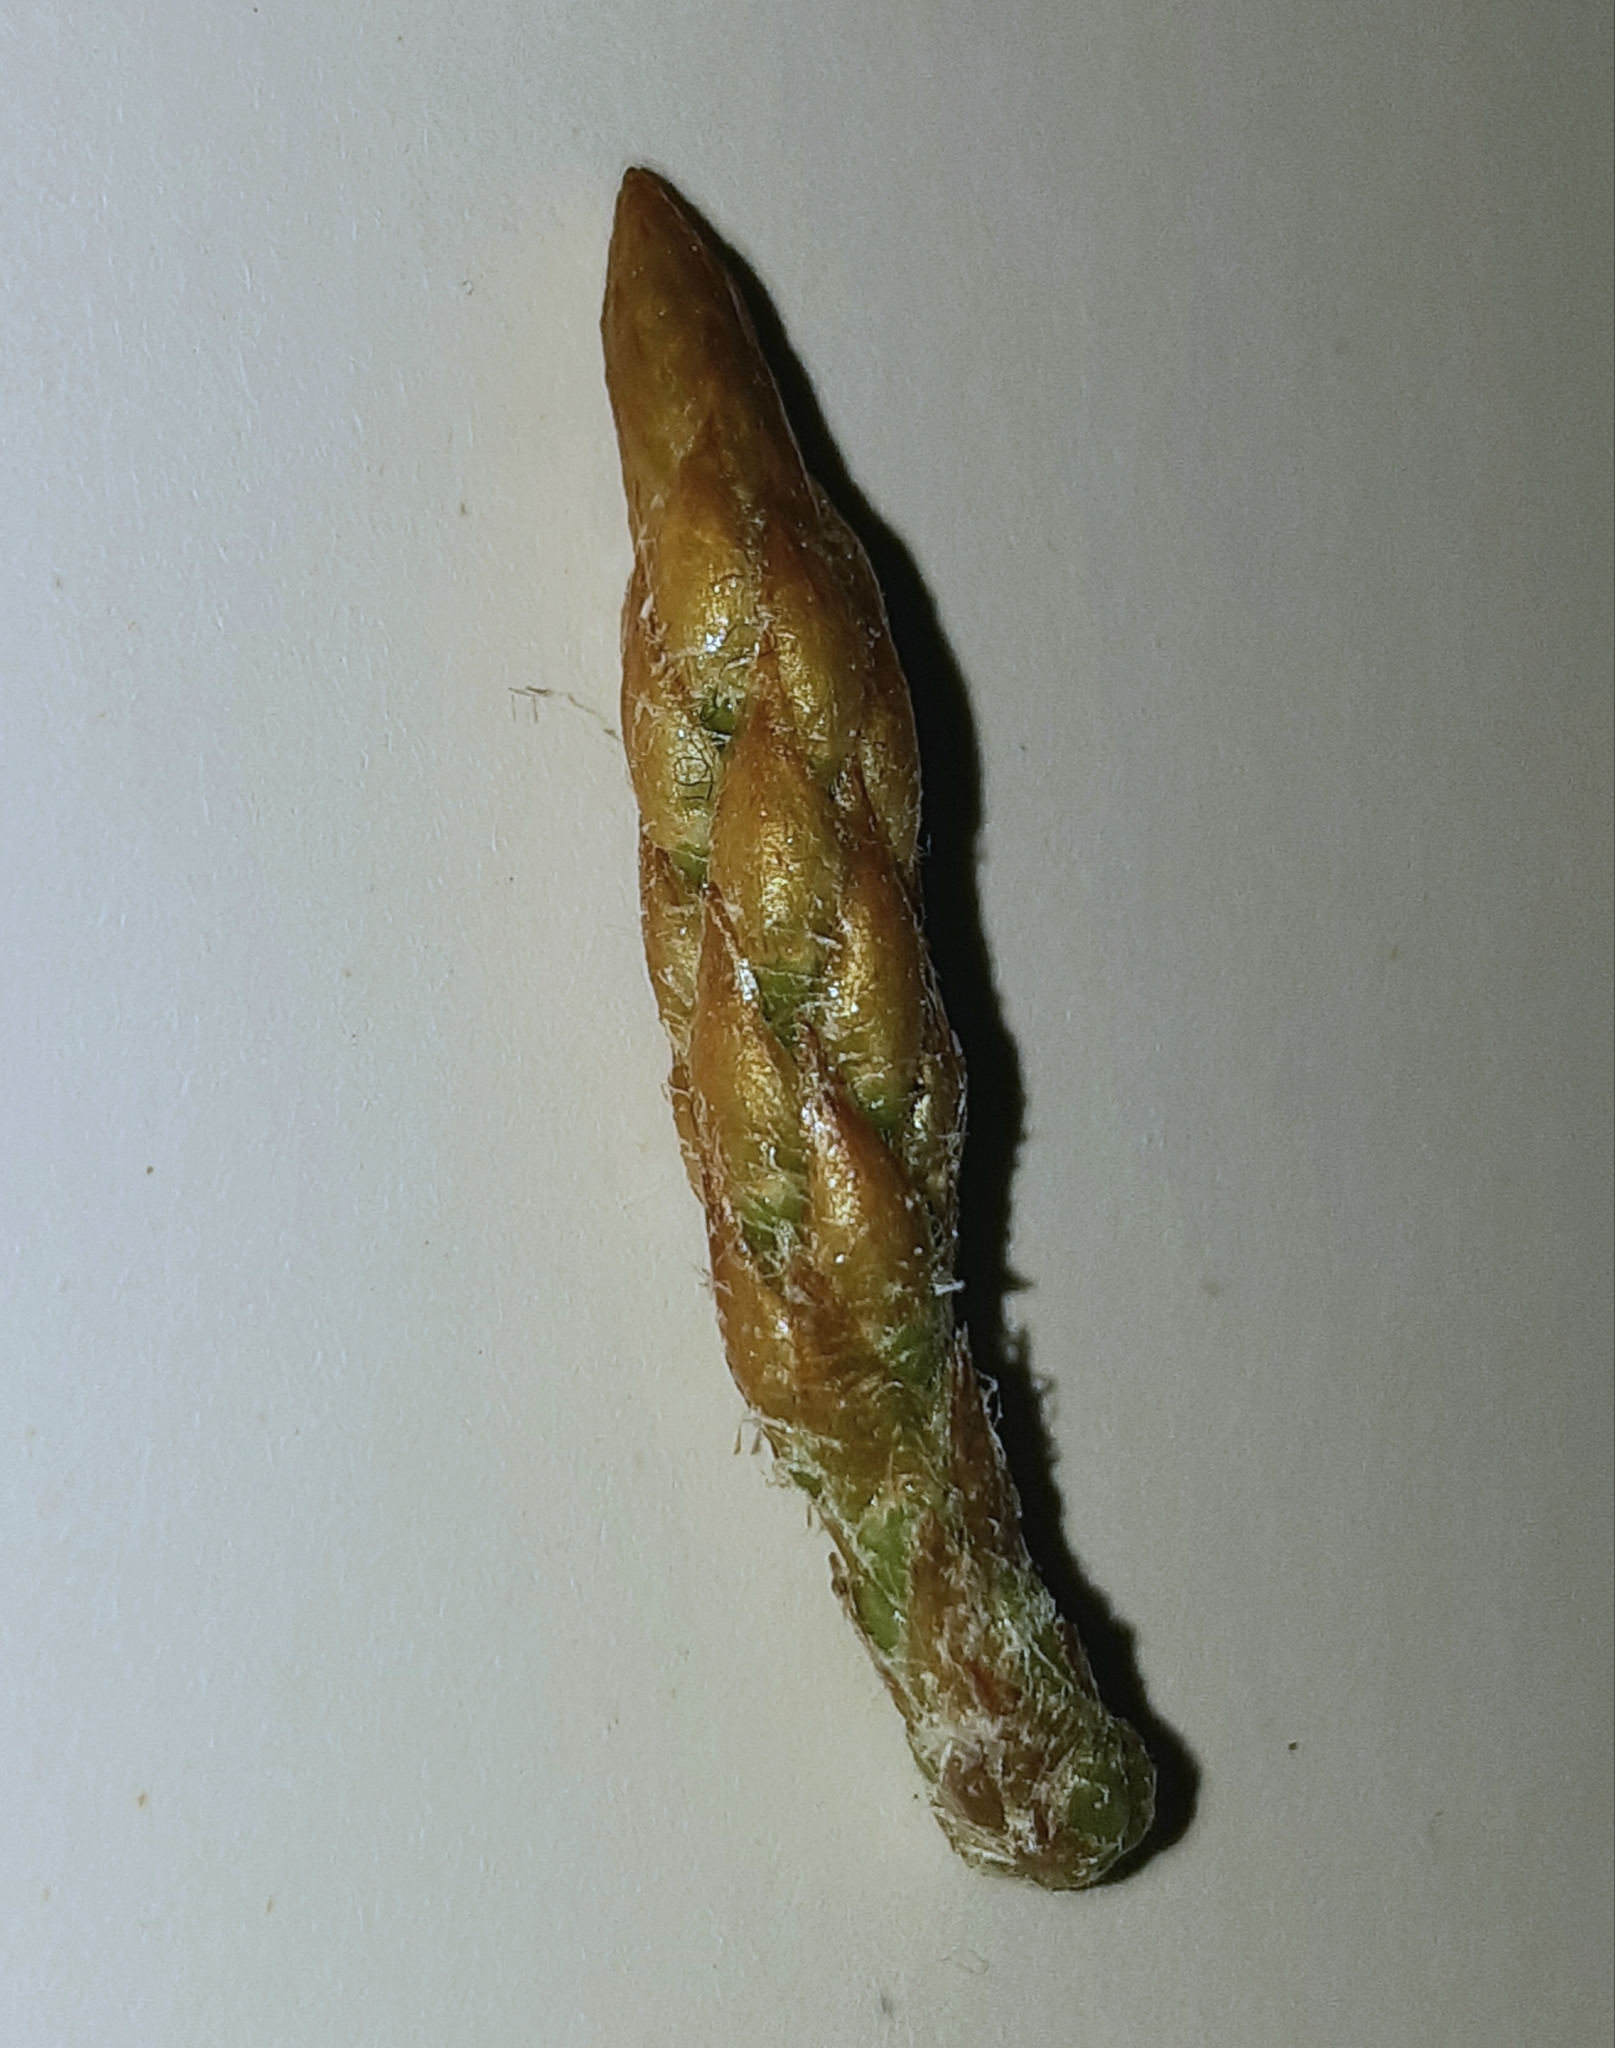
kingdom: Plantae
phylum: Tracheophyta
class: Pinopsida
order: Pinales
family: Pinaceae
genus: Pinus
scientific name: Pinus radiata
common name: Monterey pine
